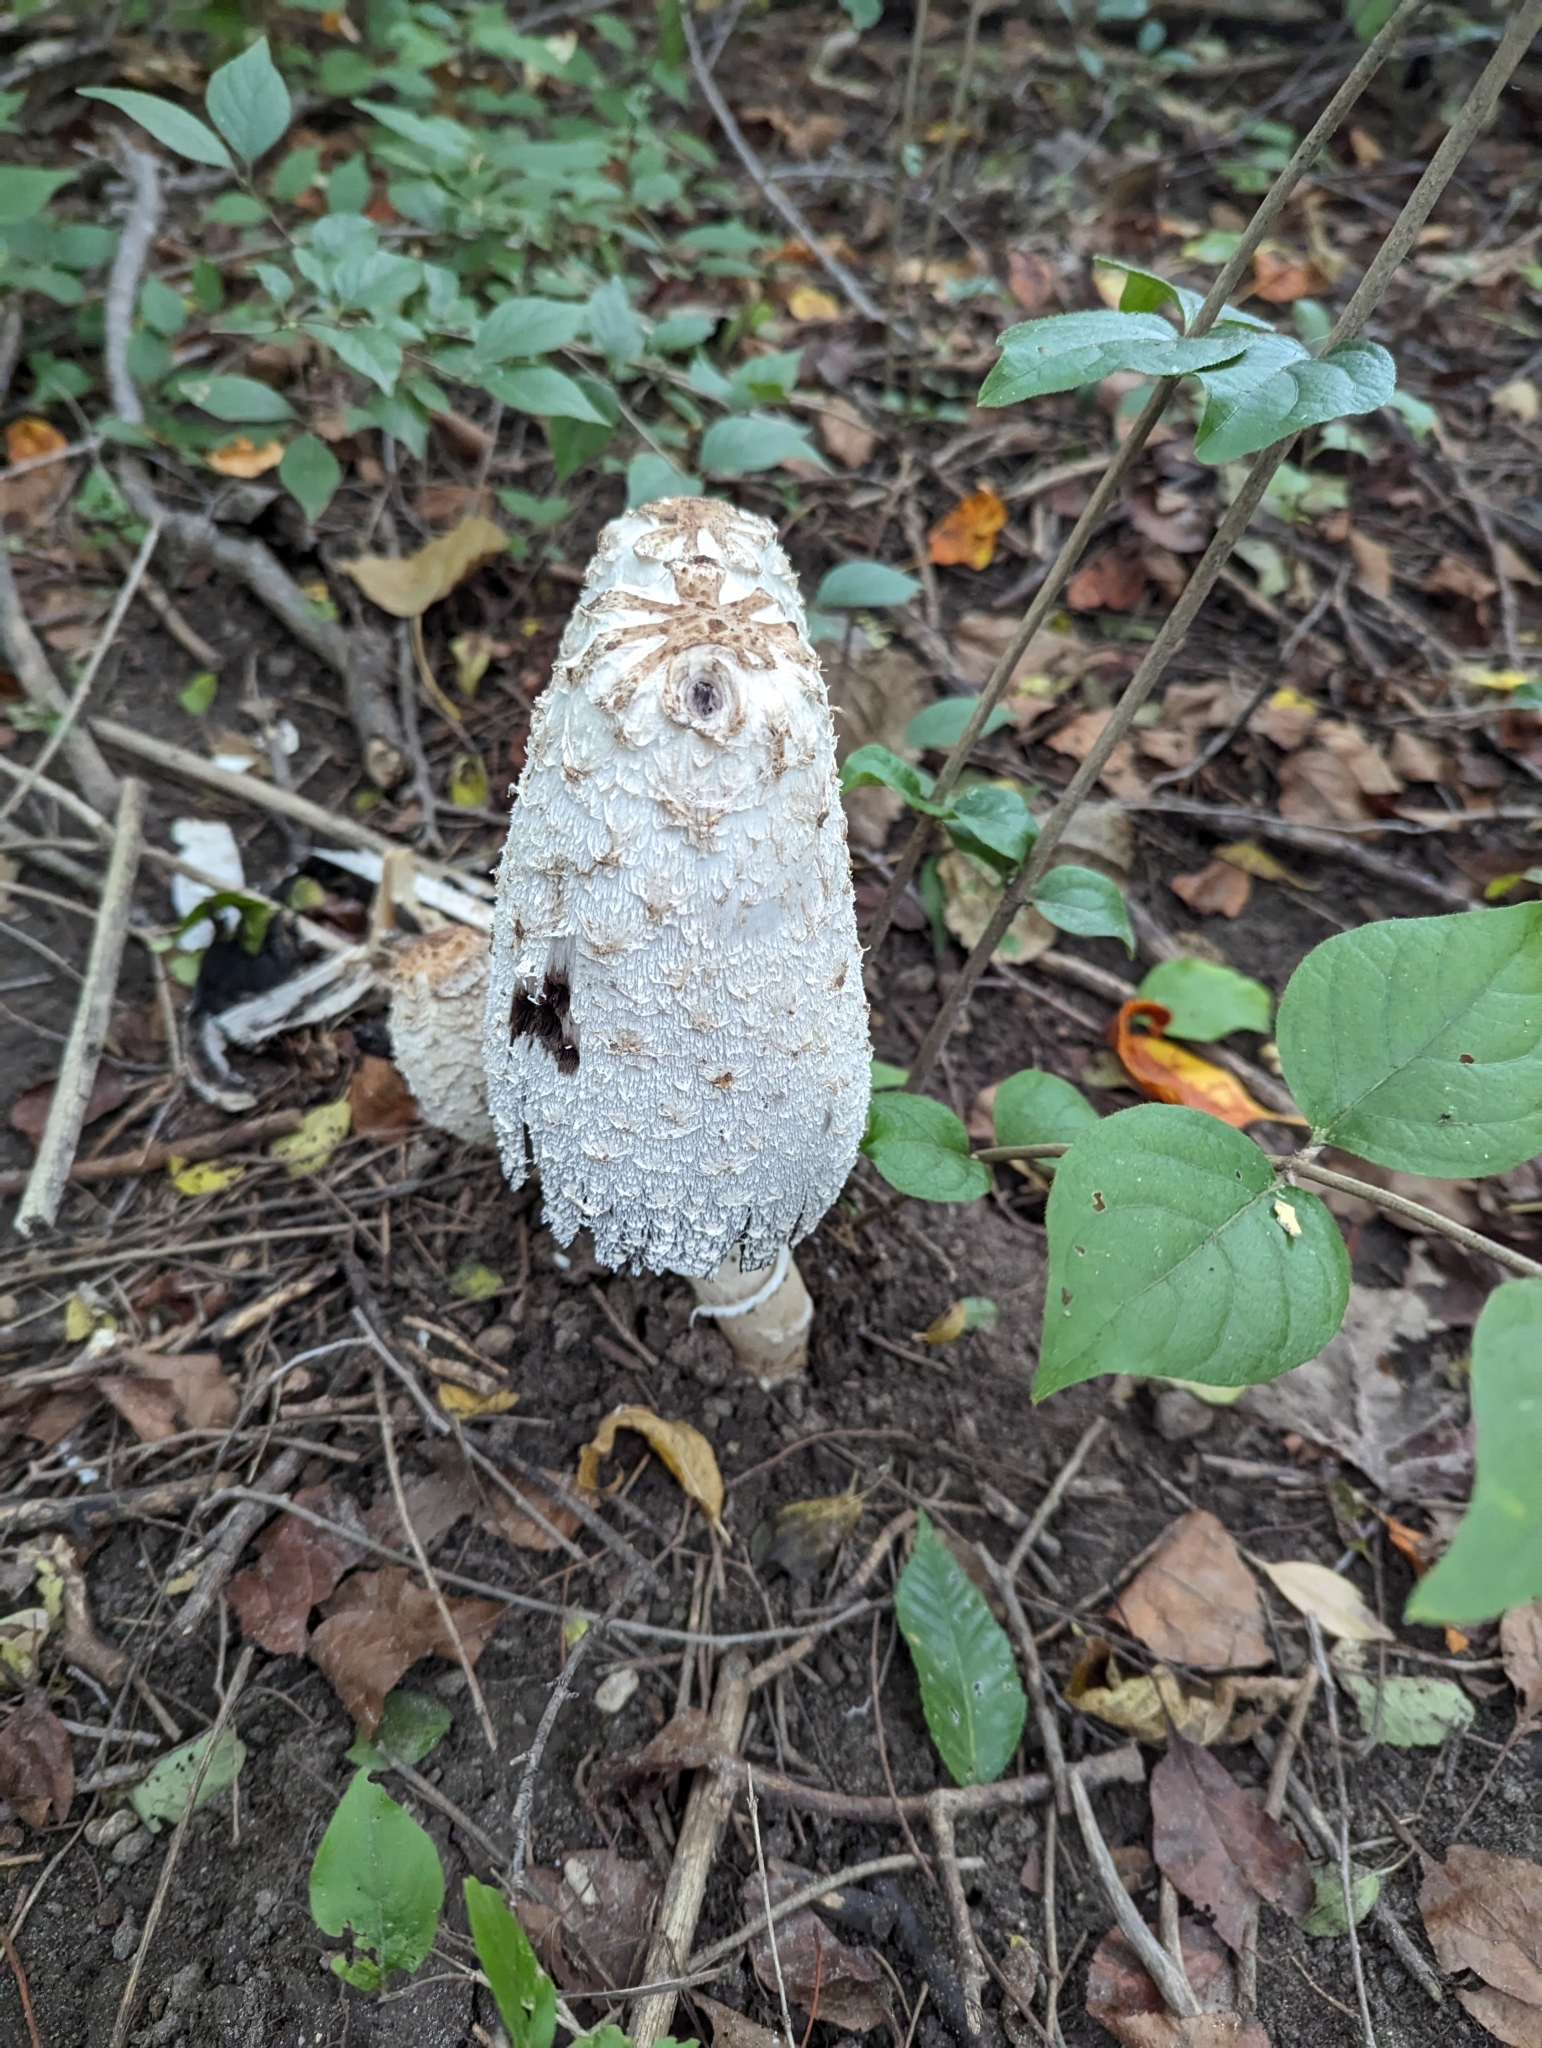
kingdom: Fungi
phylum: Basidiomycota
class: Agaricomycetes
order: Agaricales
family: Agaricaceae
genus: Coprinus
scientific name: Coprinus comatus
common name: Lawyer's wig
